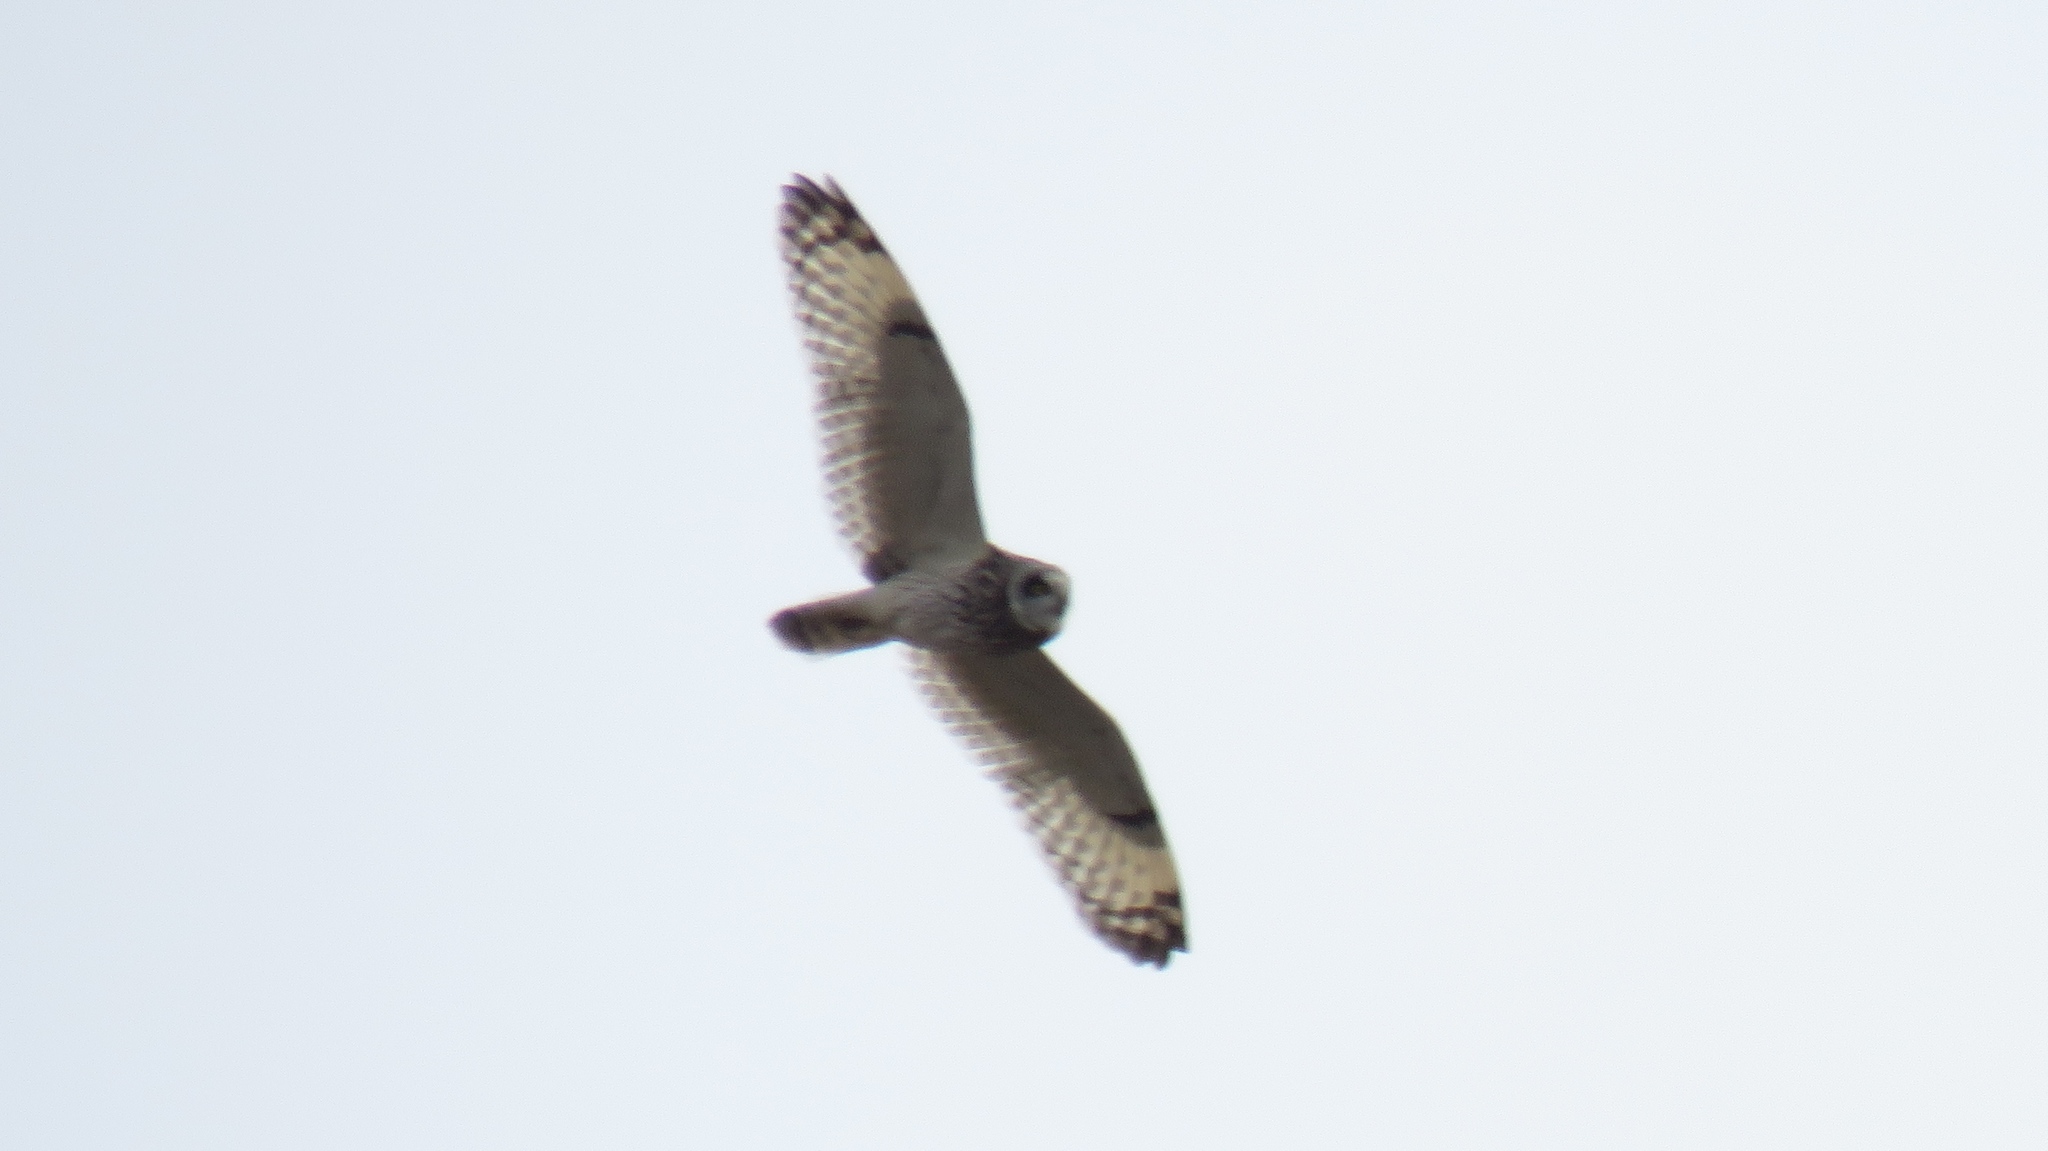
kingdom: Animalia
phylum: Chordata
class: Aves
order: Strigiformes
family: Strigidae
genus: Asio
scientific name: Asio flammeus
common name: Short-eared owl
